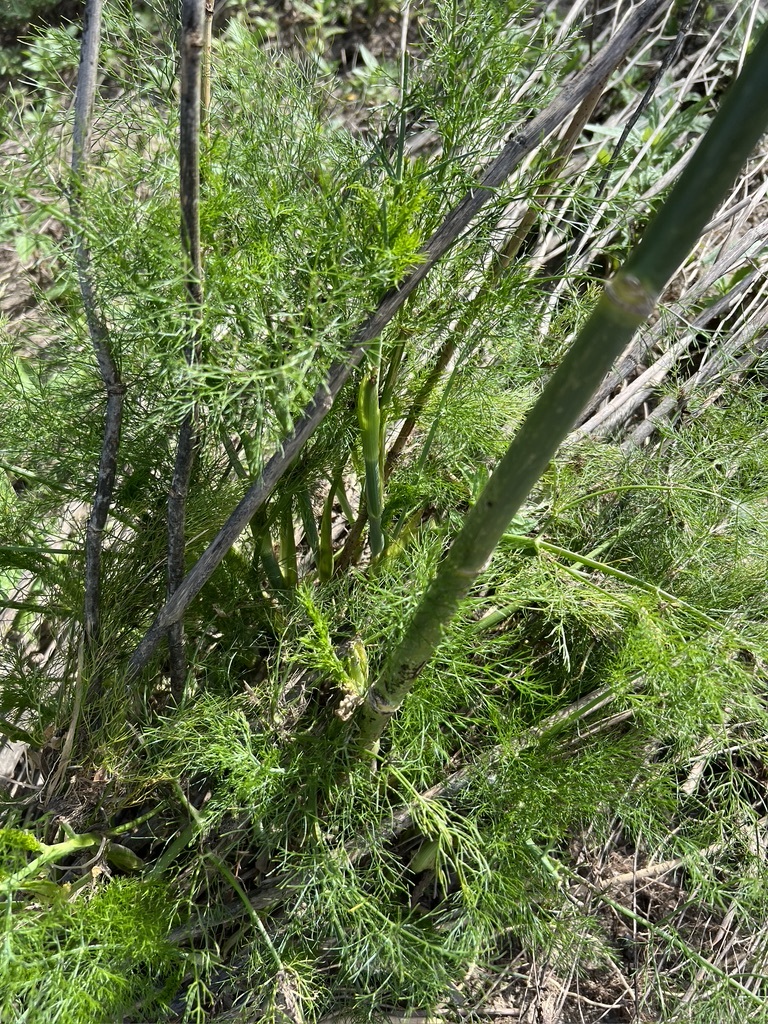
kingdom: Plantae
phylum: Tracheophyta
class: Magnoliopsida
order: Apiales
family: Apiaceae
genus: Foeniculum
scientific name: Foeniculum vulgare
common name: Fennel
